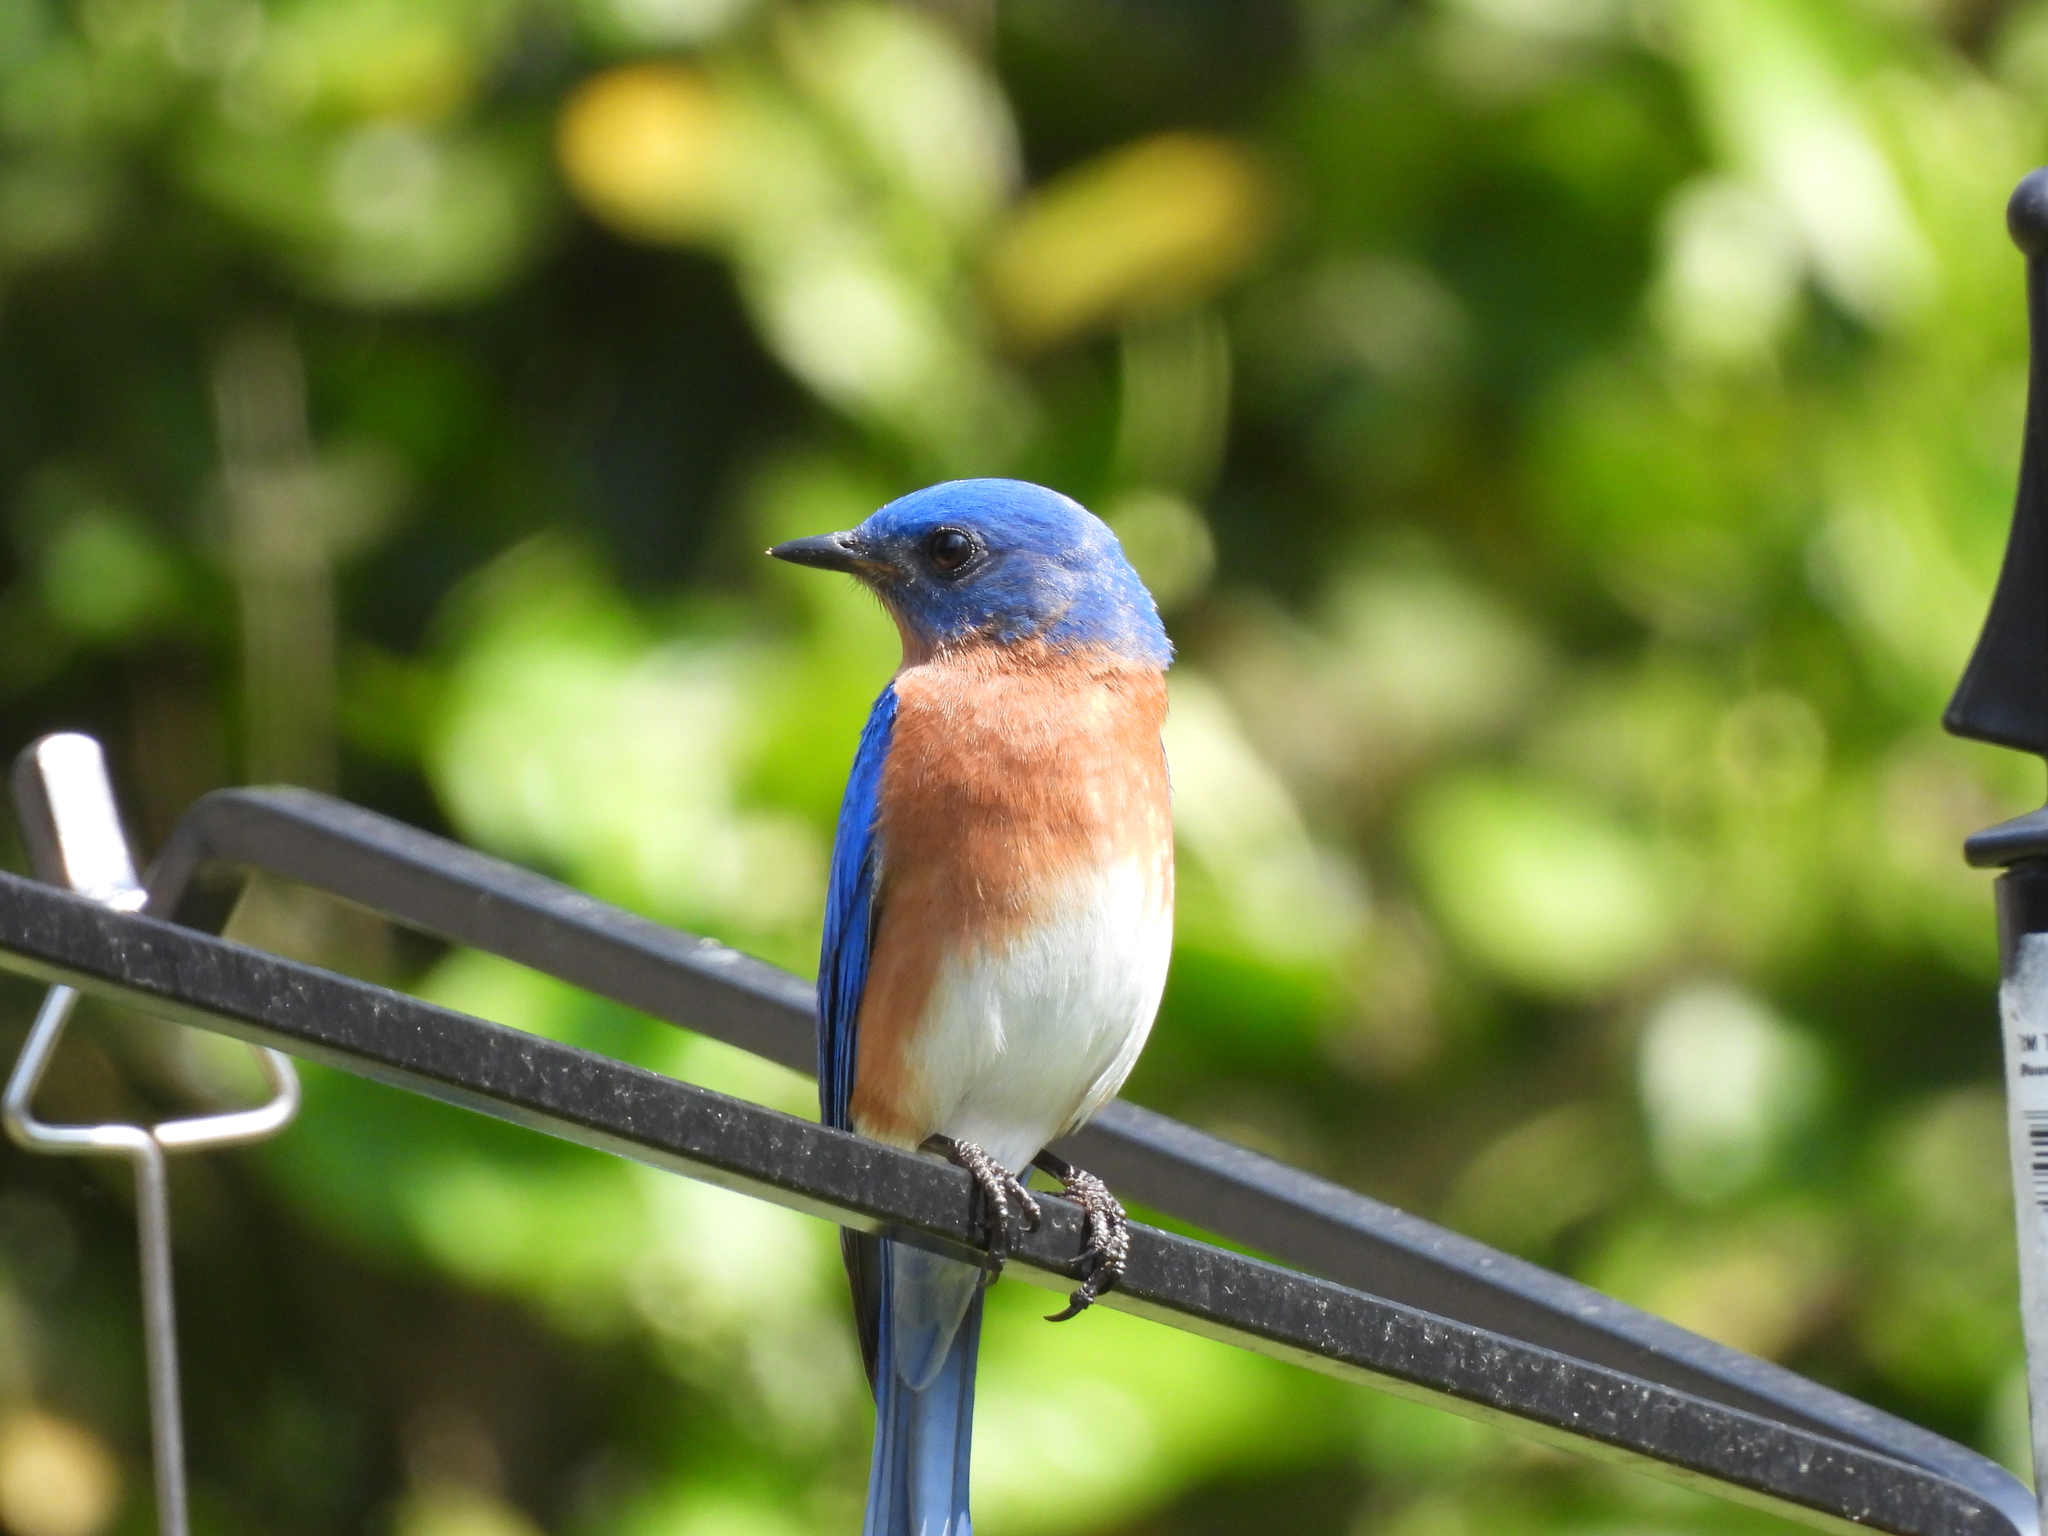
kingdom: Animalia
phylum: Chordata
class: Aves
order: Passeriformes
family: Turdidae
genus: Sialia
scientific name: Sialia sialis
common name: Eastern bluebird
